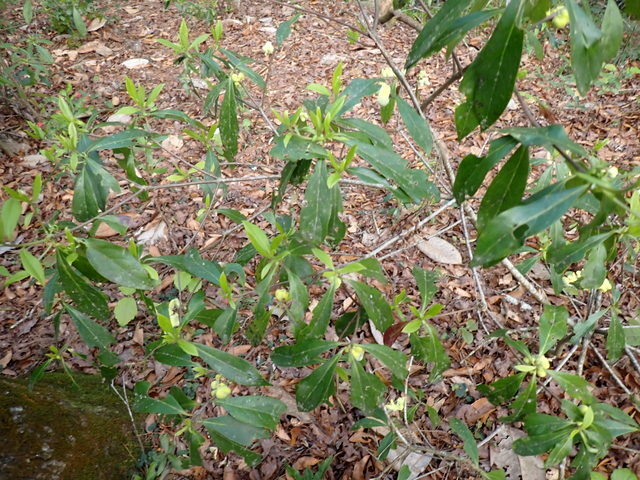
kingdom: Fungi
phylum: Basidiomycota
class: Exobasidiomycetes
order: Exobasidiales
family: Exobasidiaceae
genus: Exobasidium
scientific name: Exobasidium symploci
